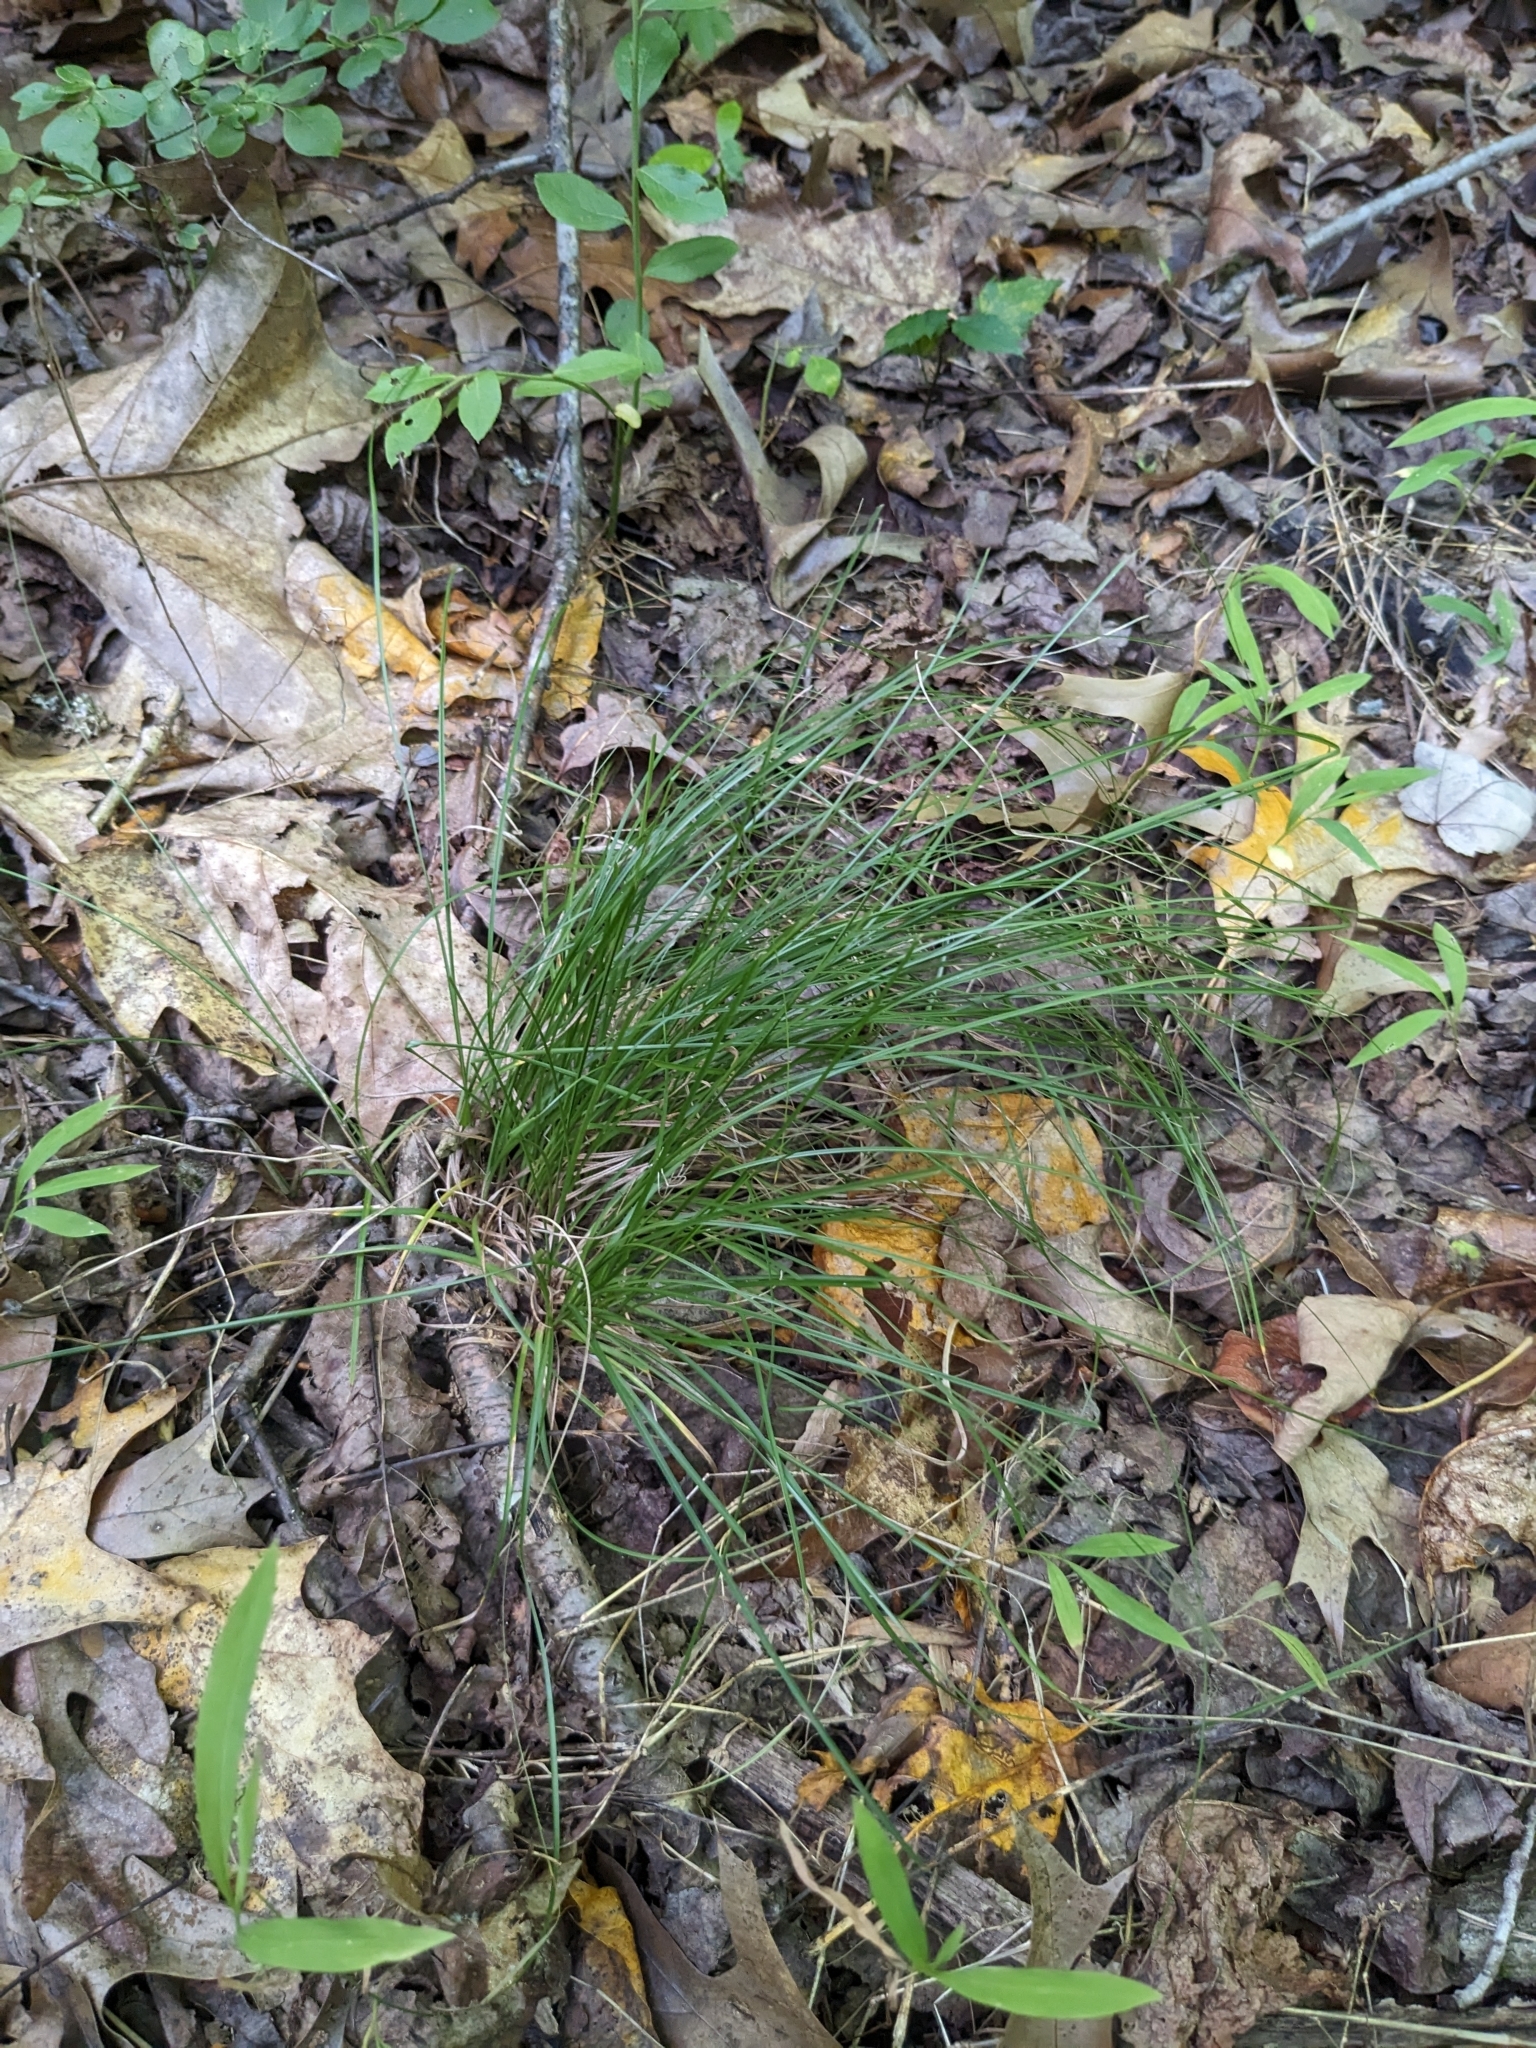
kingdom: Plantae
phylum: Tracheophyta
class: Liliopsida
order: Poales
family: Cyperaceae
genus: Carex
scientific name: Carex
